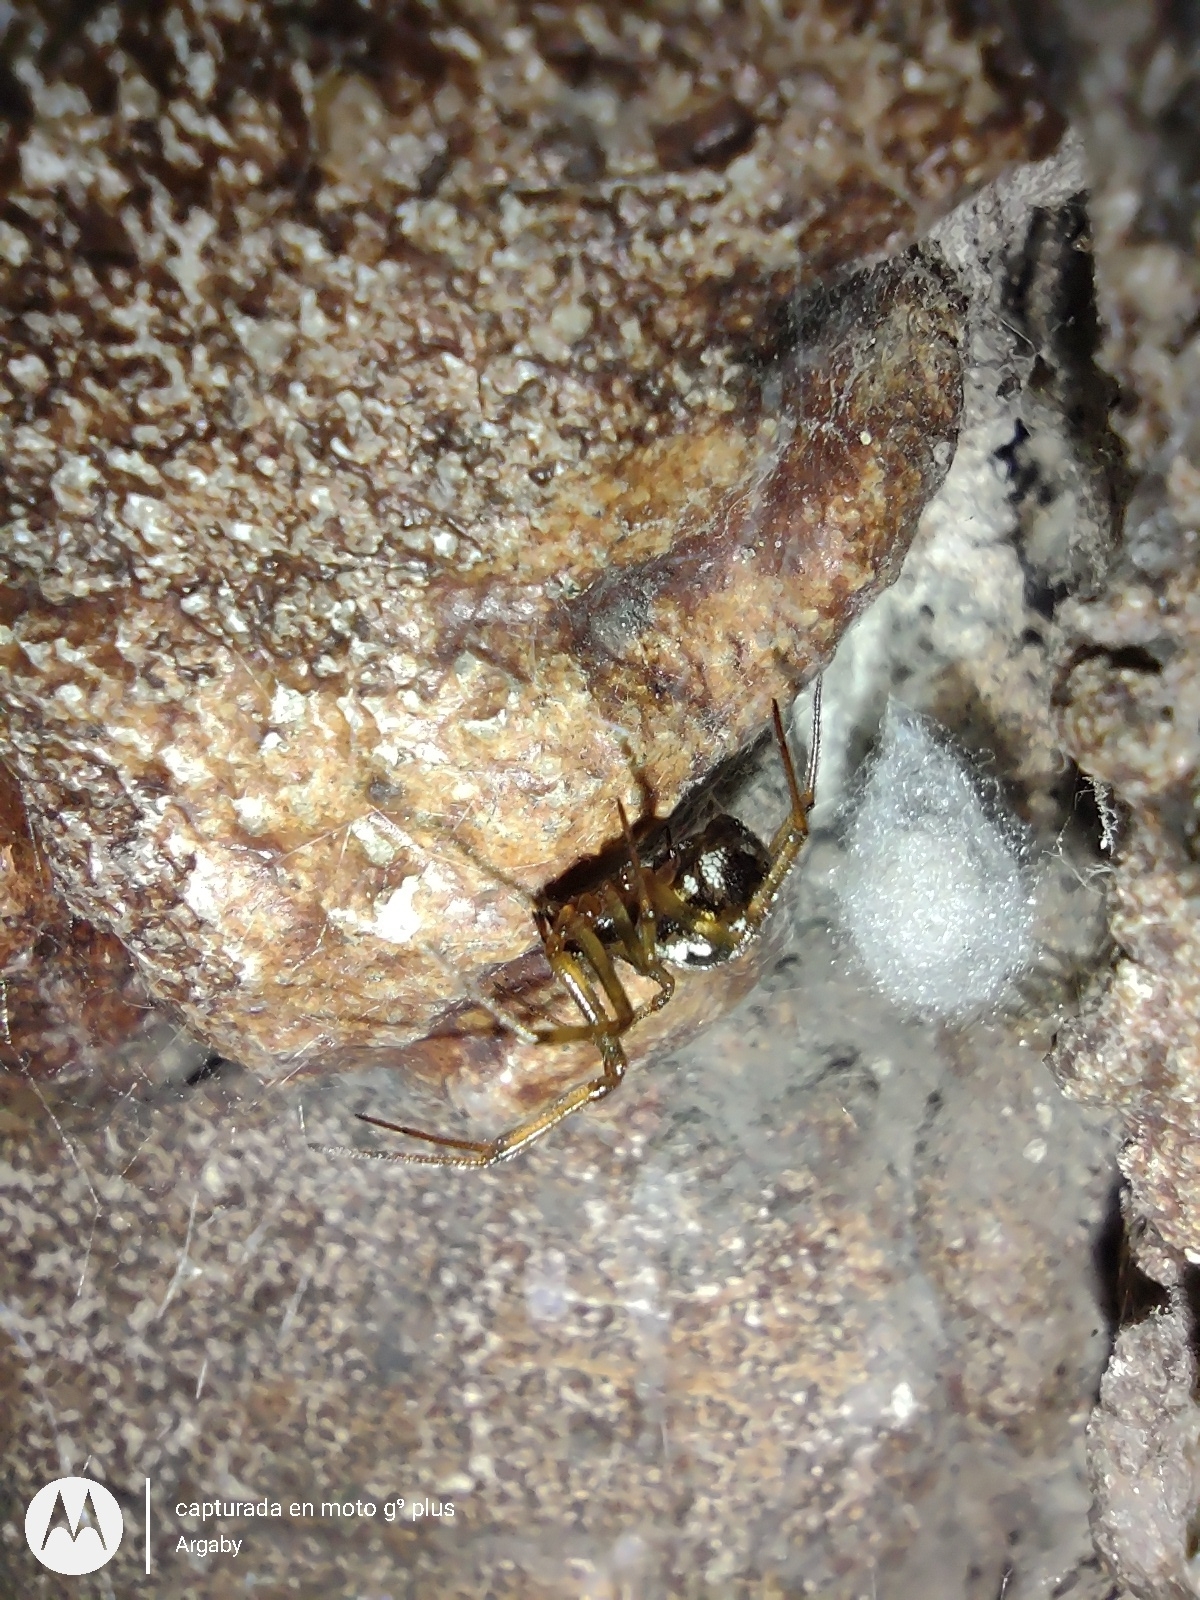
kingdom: Animalia
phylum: Arthropoda
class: Arachnida
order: Araneae
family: Theridiidae
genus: Steatoda
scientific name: Steatoda triangulosa
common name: Triangulate bud spider
